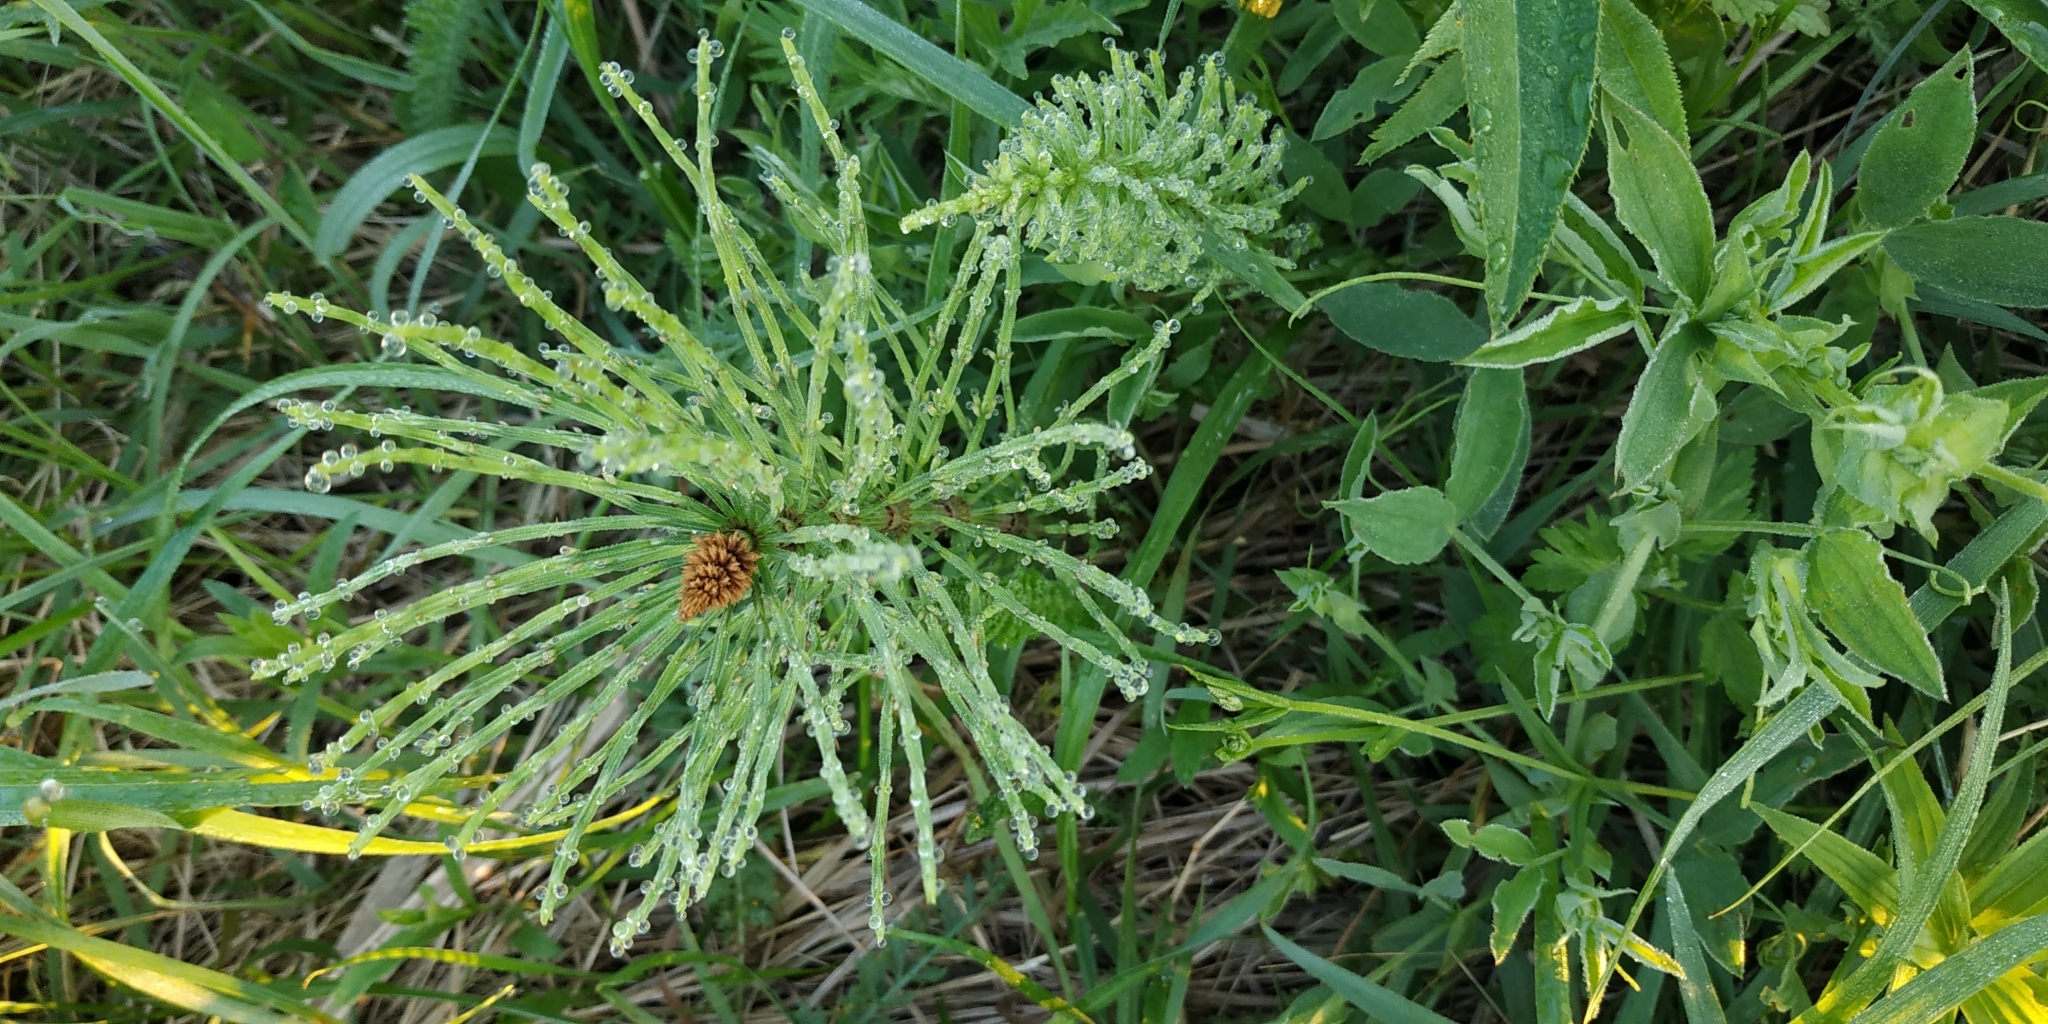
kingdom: Plantae
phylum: Tracheophyta
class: Polypodiopsida
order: Equisetales
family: Equisetaceae
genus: Equisetum
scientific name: Equisetum arvense
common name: Field horsetail
